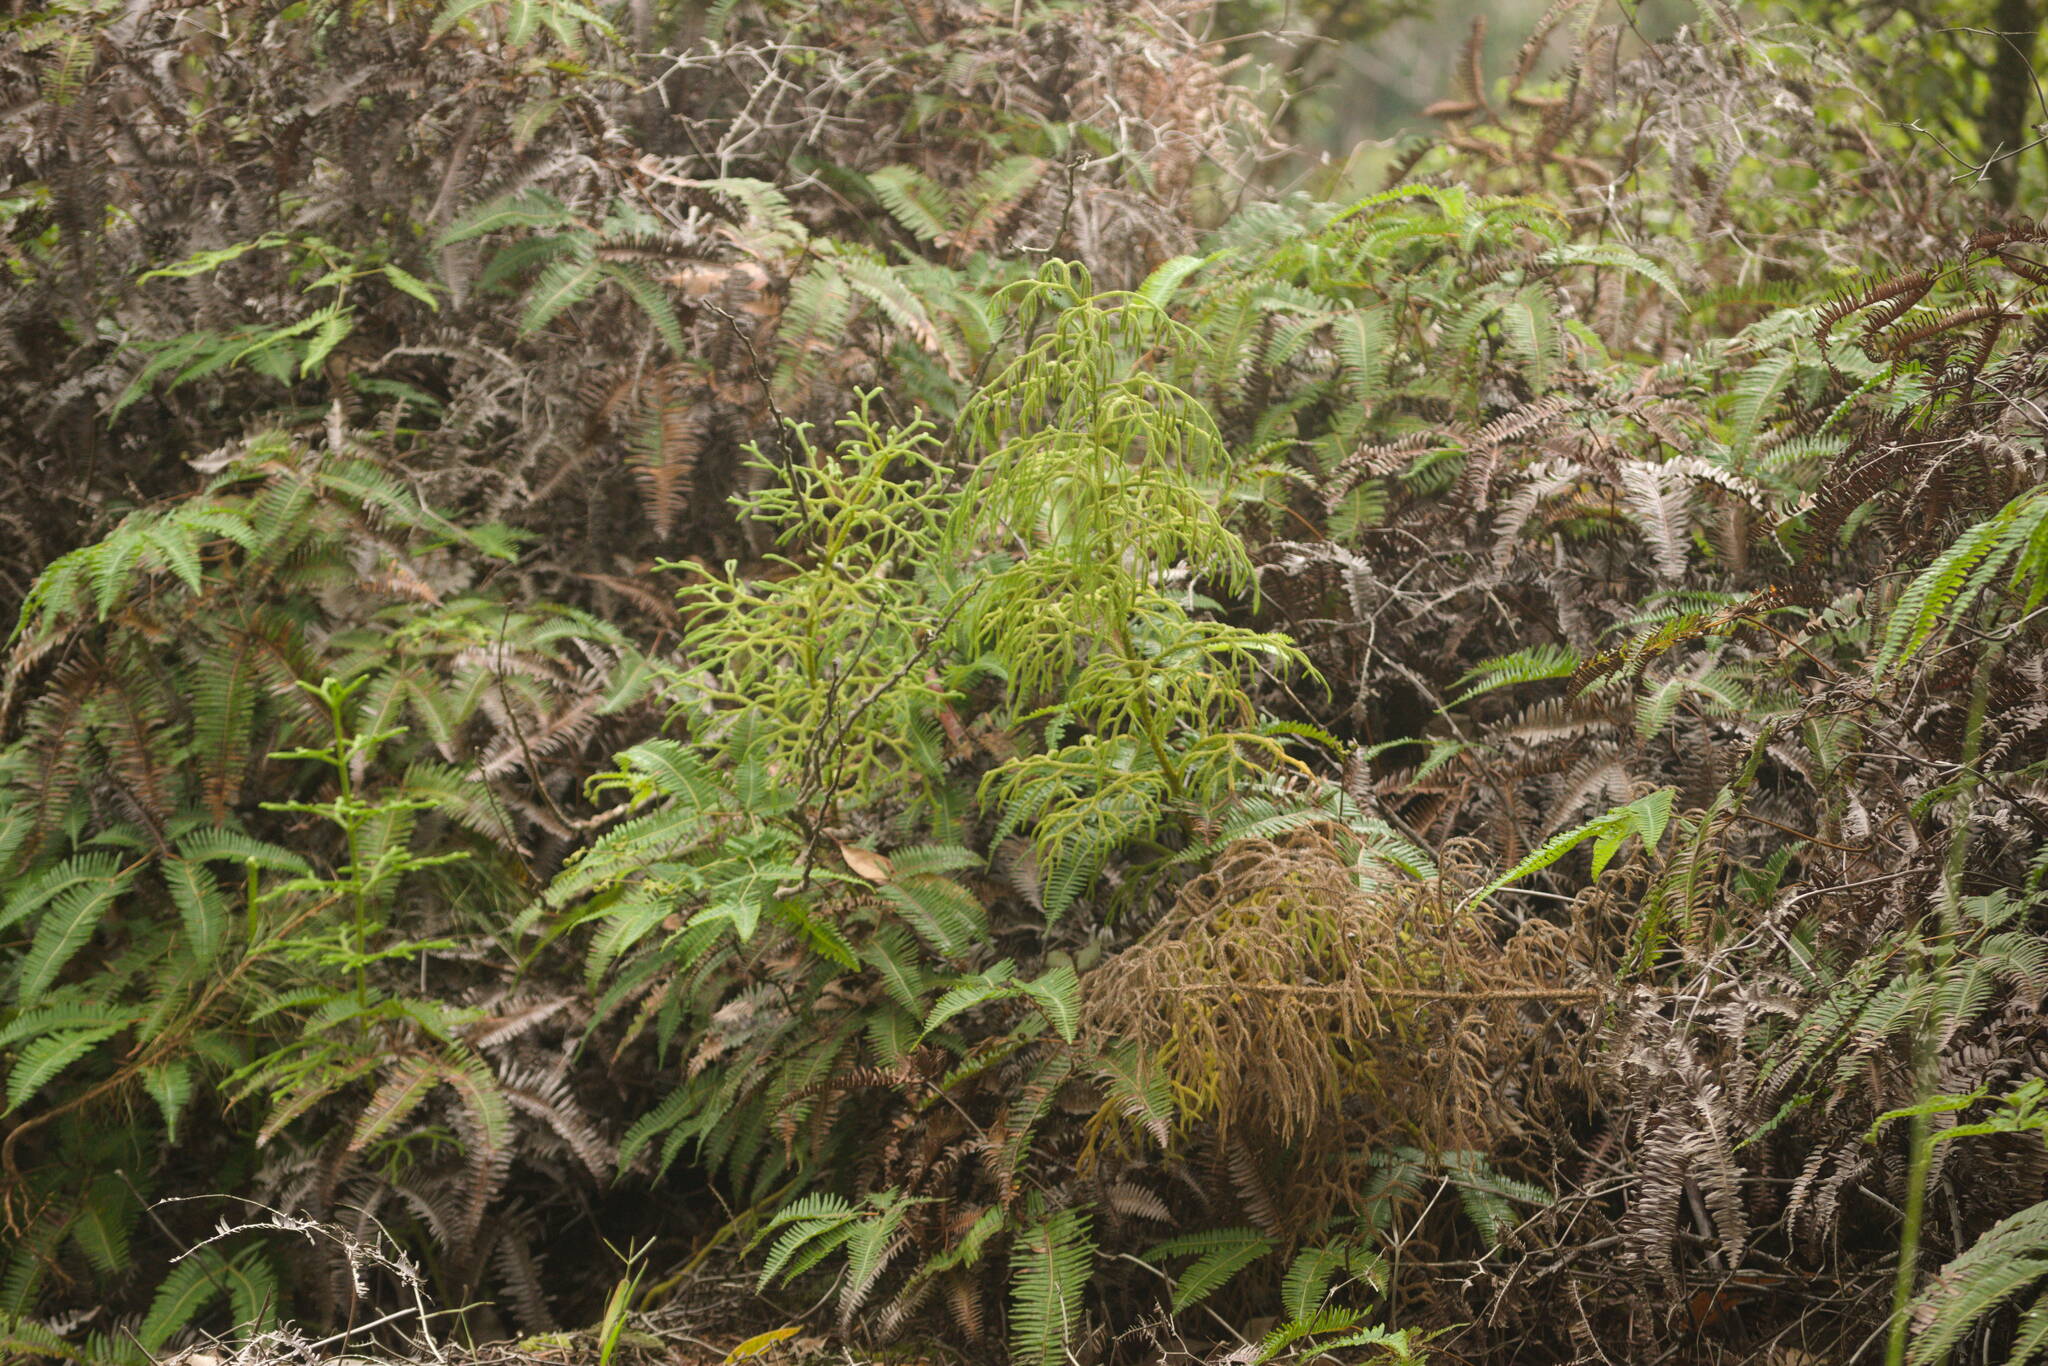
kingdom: Plantae
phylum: Tracheophyta
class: Lycopodiopsida
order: Lycopodiales
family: Lycopodiaceae
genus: Palhinhaea
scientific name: Palhinhaea cernua
